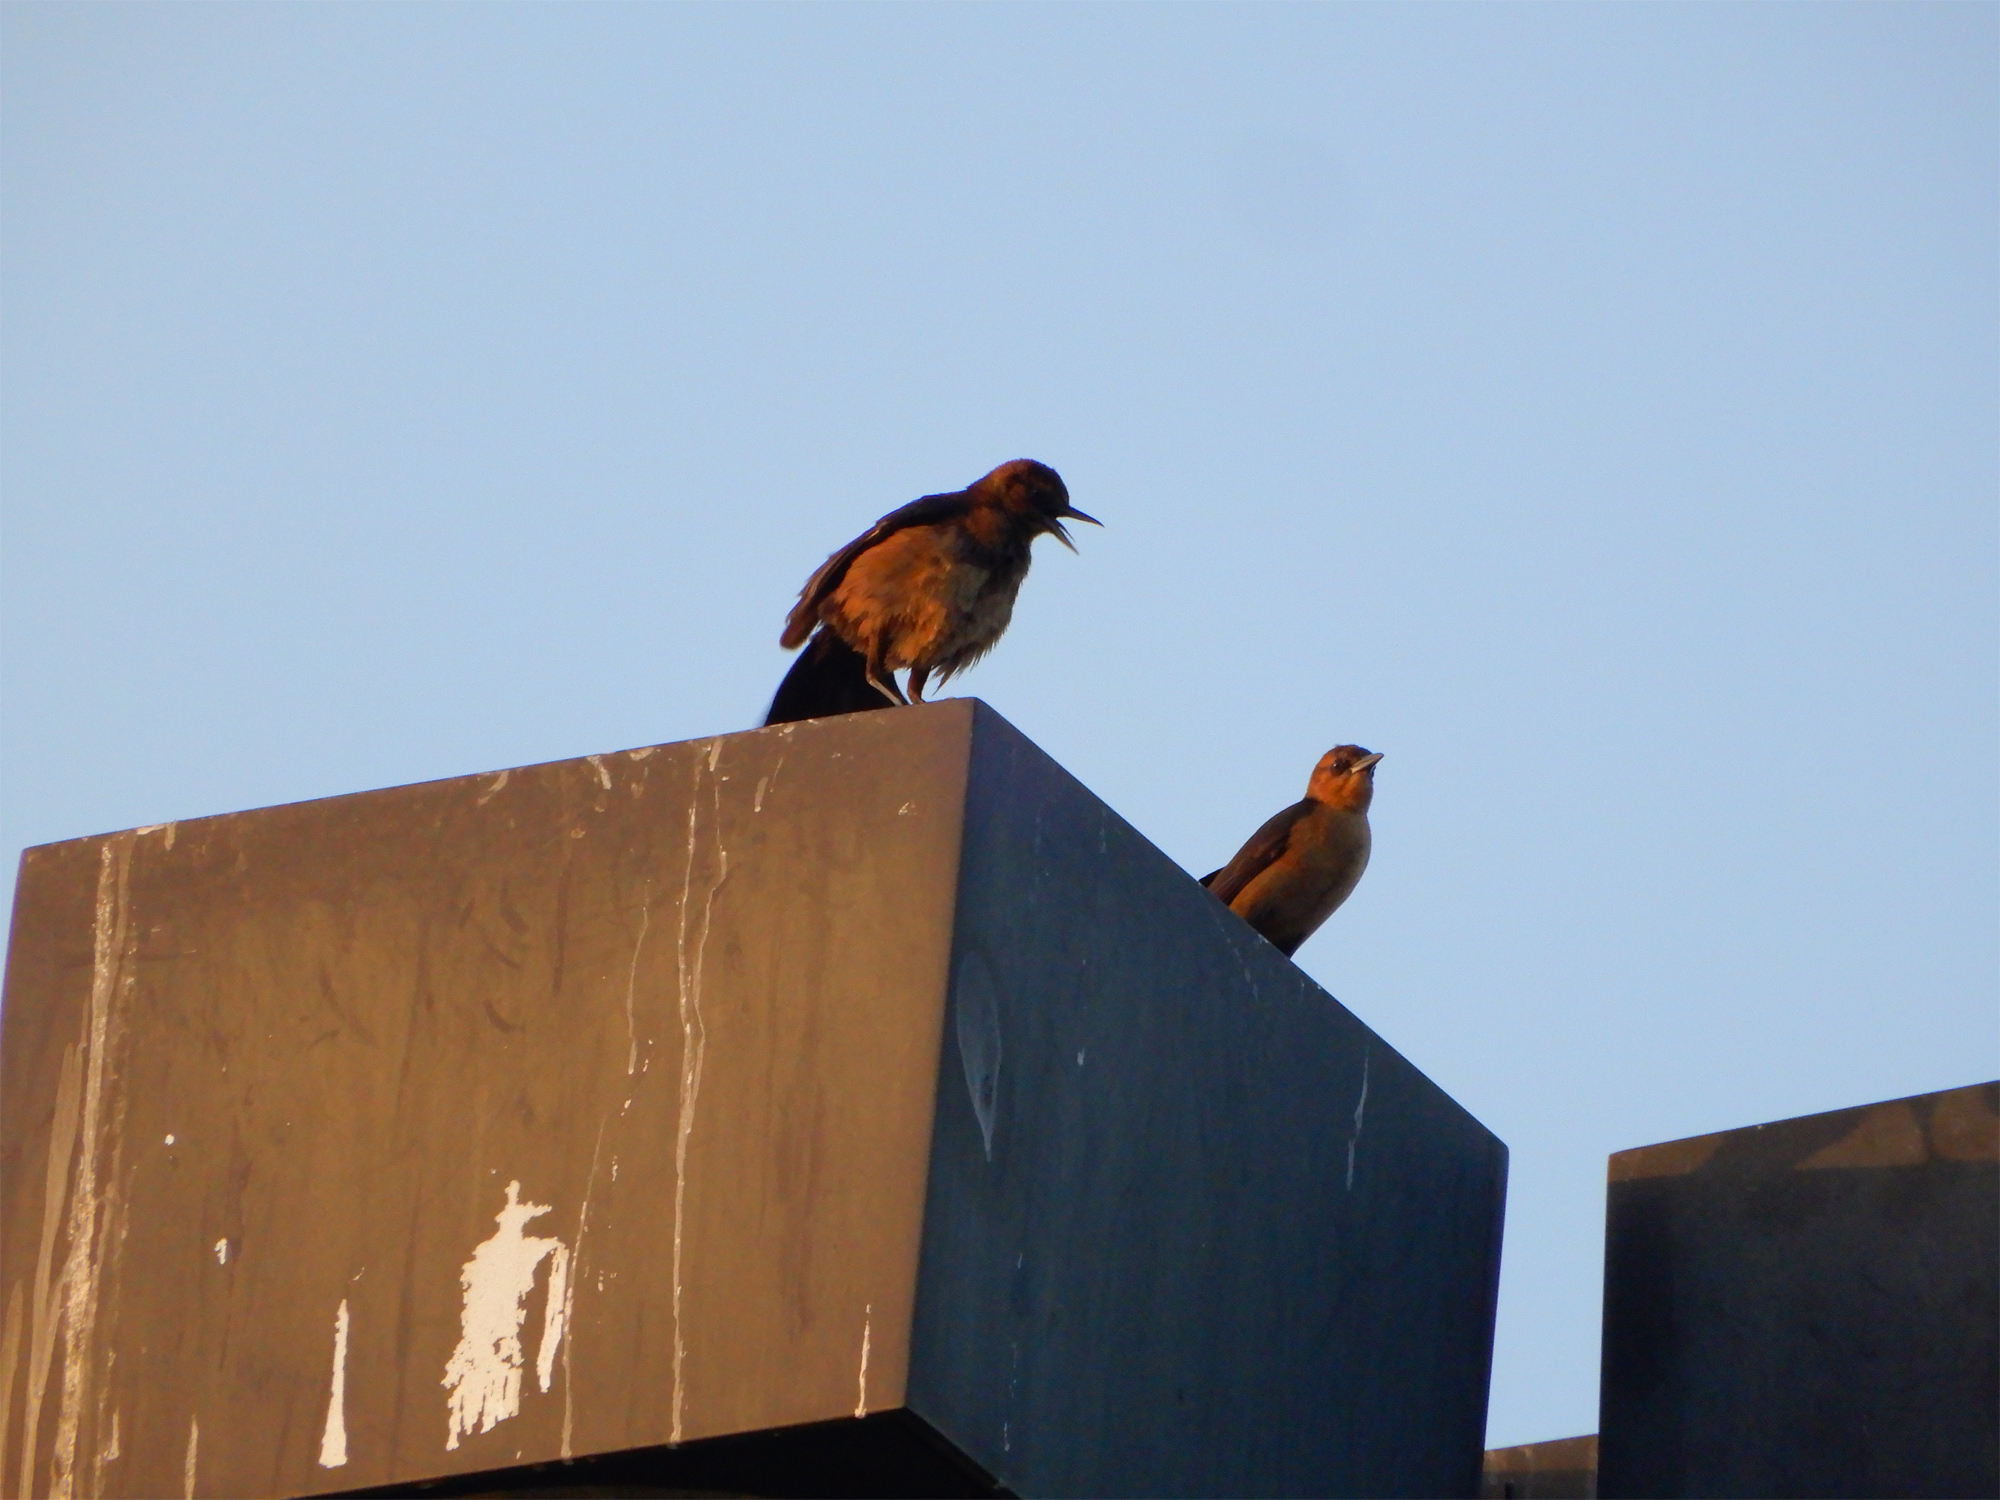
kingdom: Animalia
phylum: Chordata
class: Aves
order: Passeriformes
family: Icteridae
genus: Quiscalus
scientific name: Quiscalus major
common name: Boat-tailed grackle
